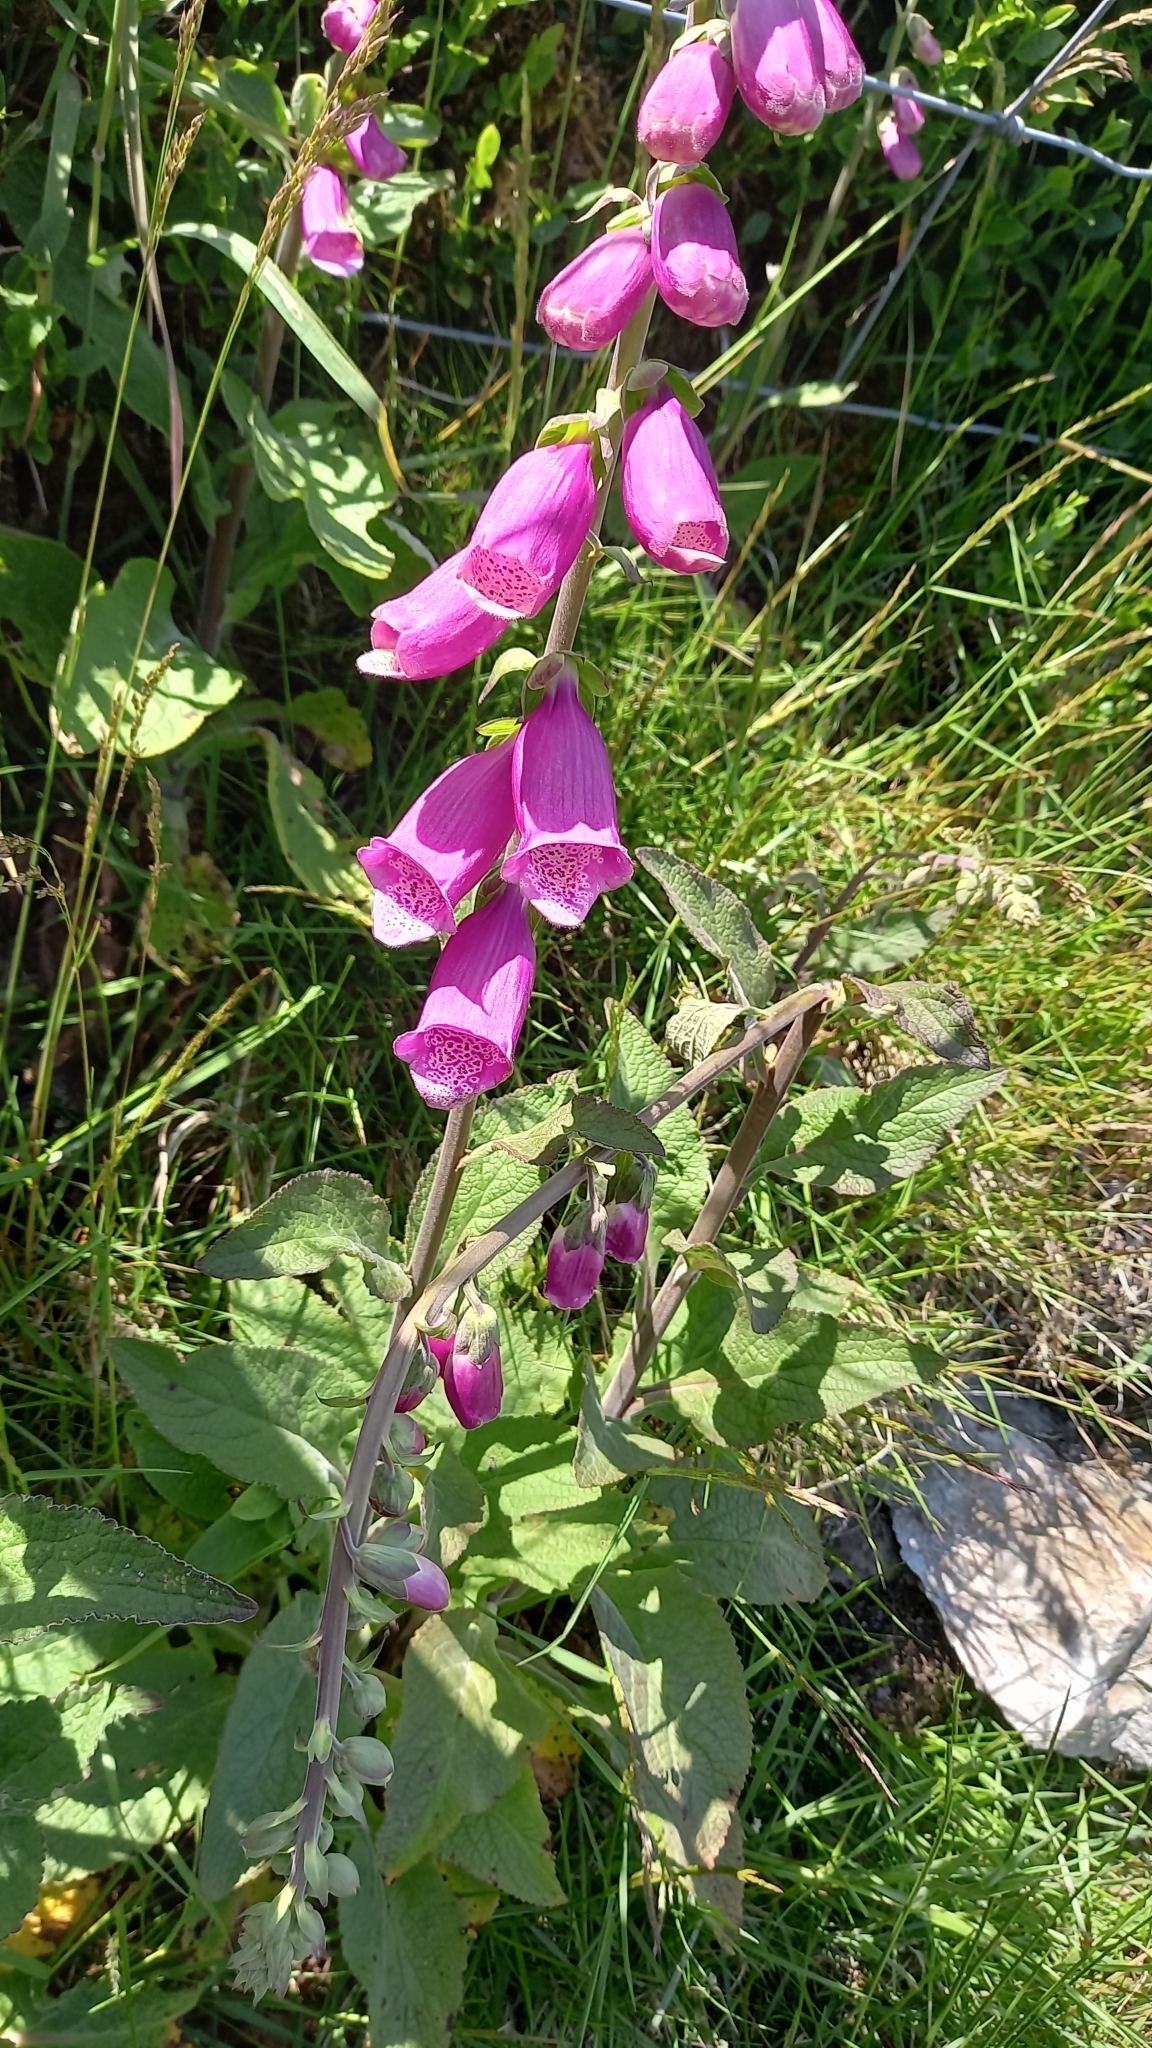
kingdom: Plantae
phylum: Tracheophyta
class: Magnoliopsida
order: Lamiales
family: Plantaginaceae
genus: Digitalis
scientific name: Digitalis purpurea
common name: Foxglove
